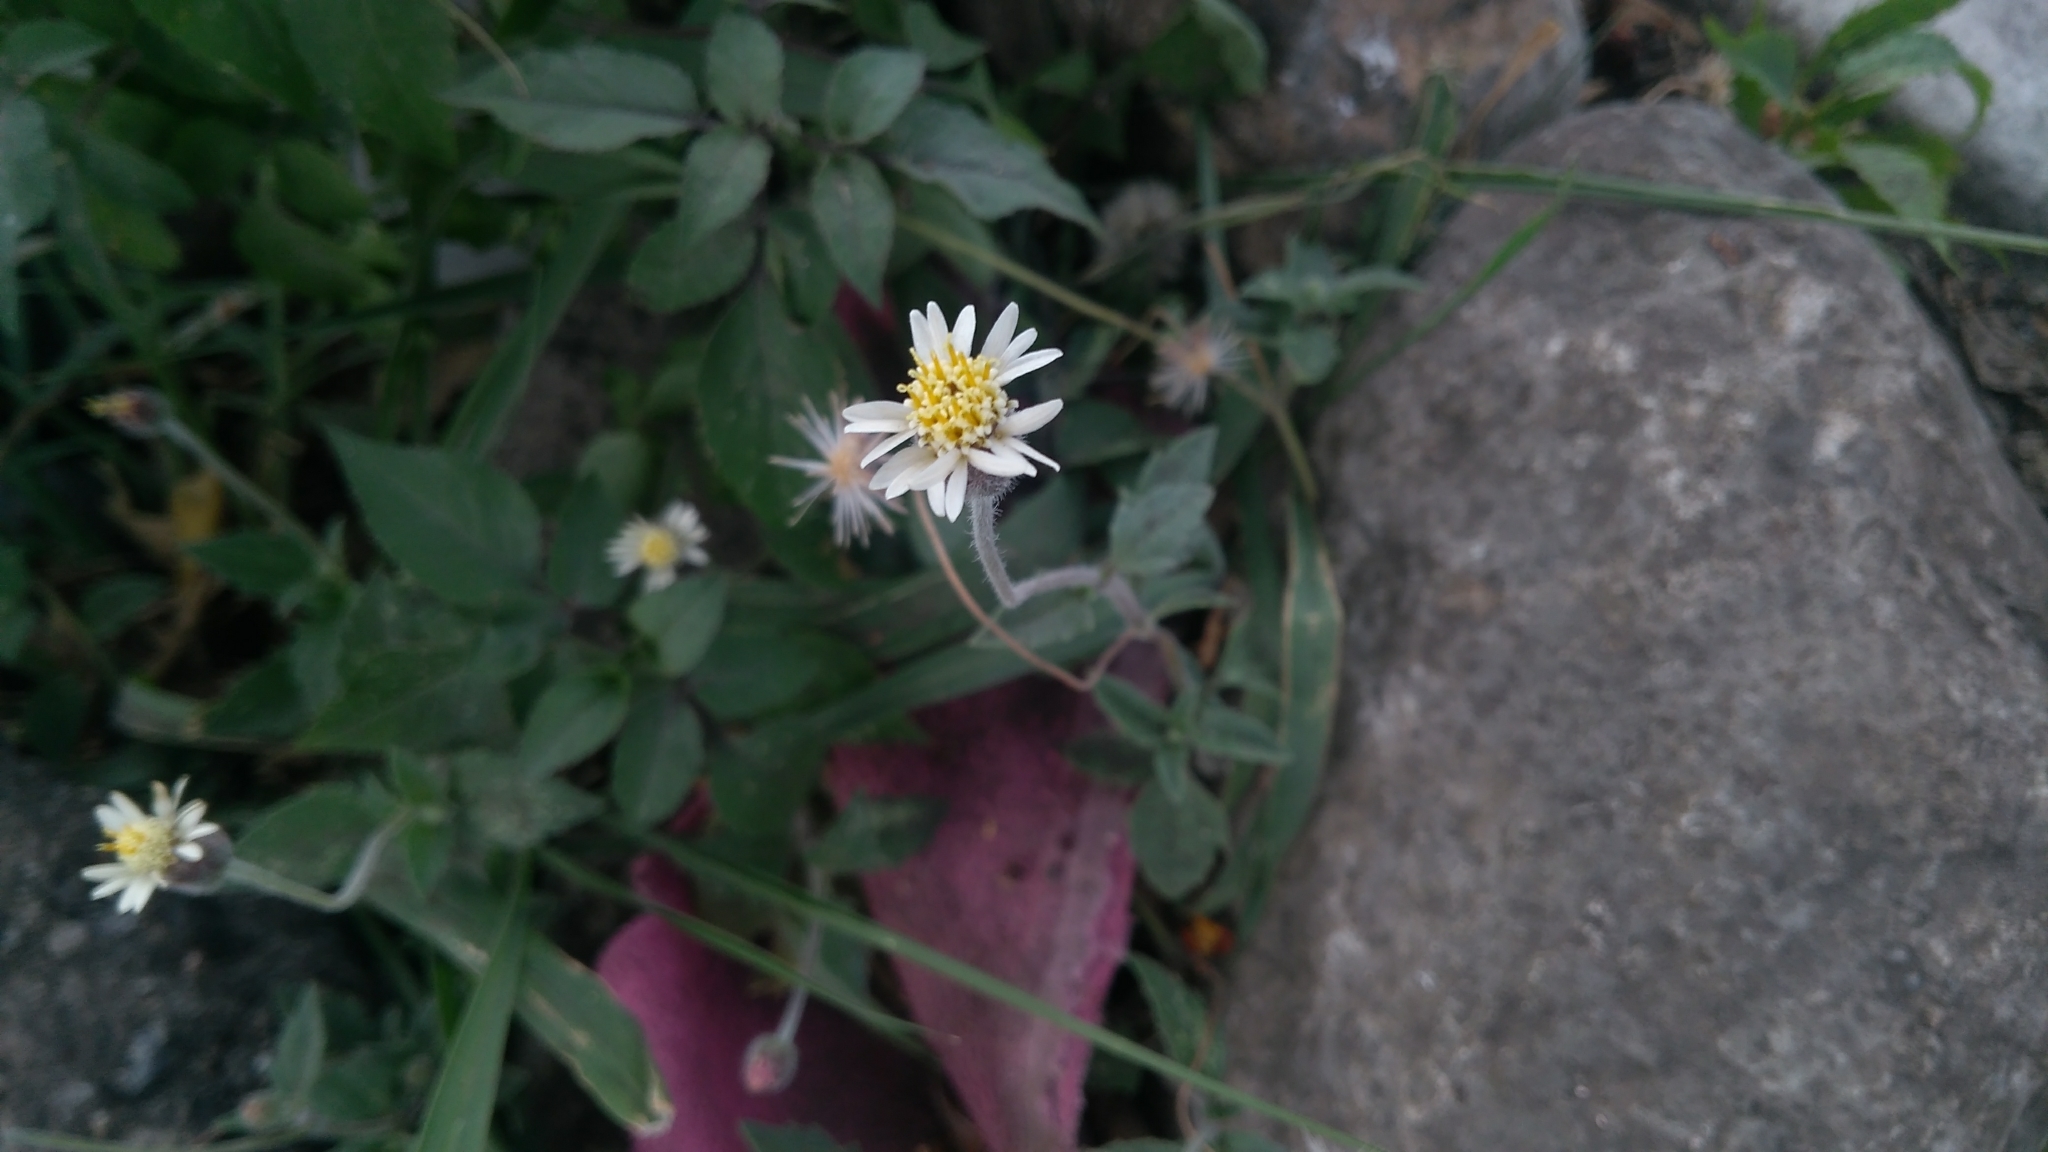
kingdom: Plantae
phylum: Tracheophyta
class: Magnoliopsida
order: Asterales
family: Asteraceae
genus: Tridax
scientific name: Tridax procumbens
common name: Coatbuttons
